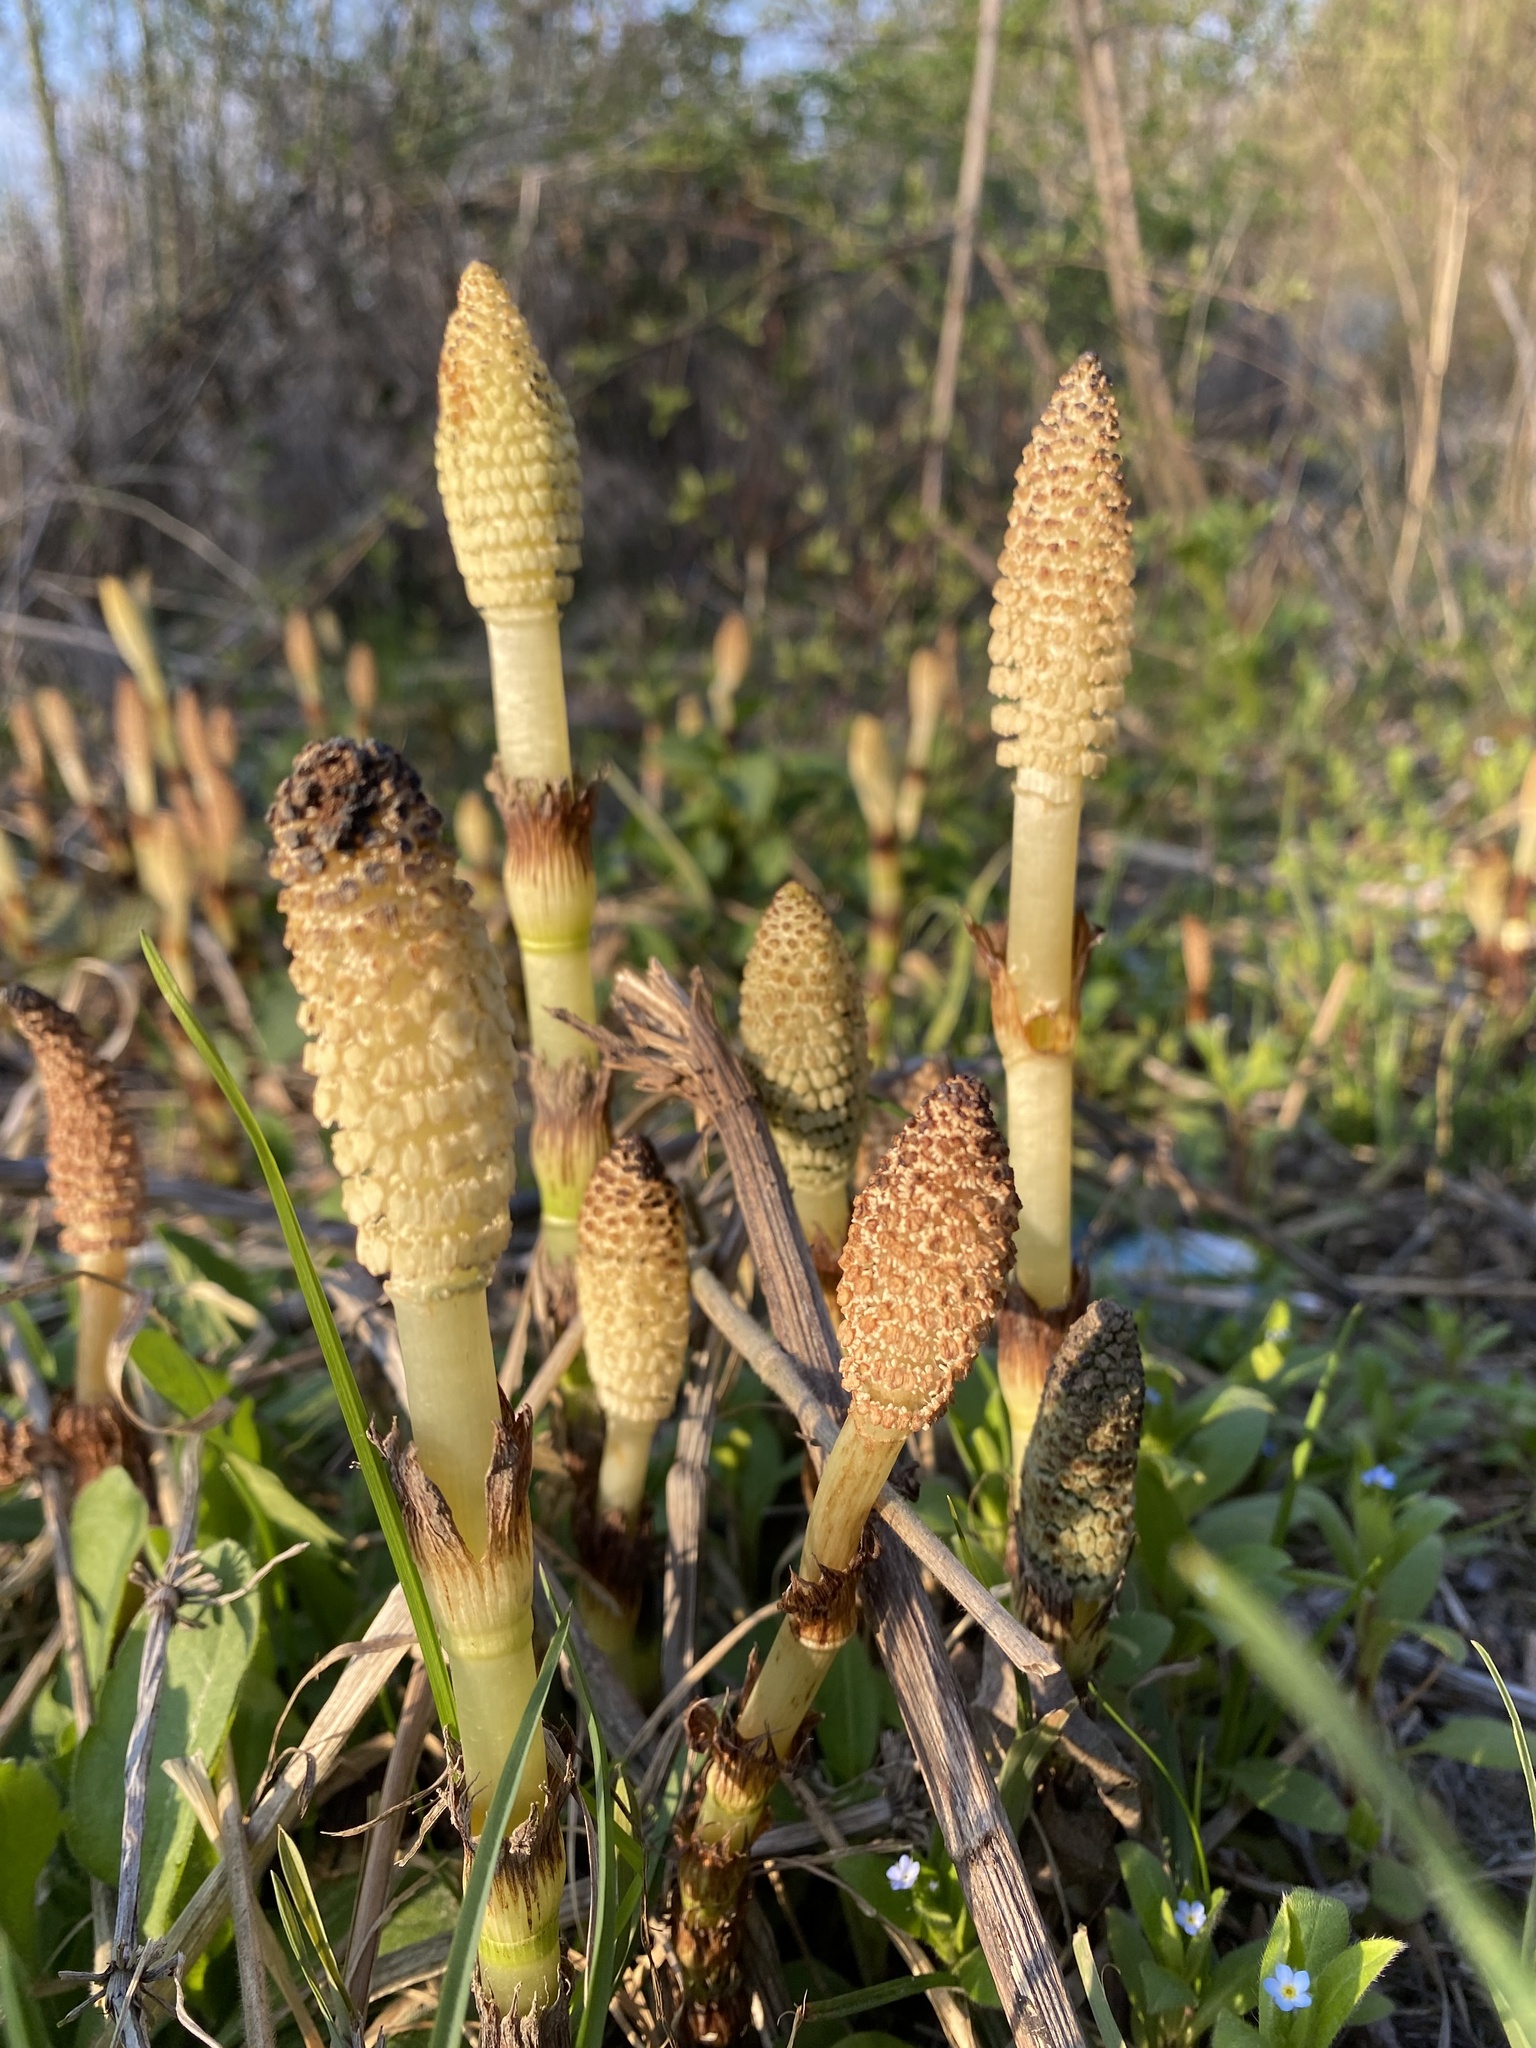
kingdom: Plantae
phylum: Tracheophyta
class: Polypodiopsida
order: Equisetales
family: Equisetaceae
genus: Equisetum
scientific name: Equisetum telmateia
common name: Great horsetail
